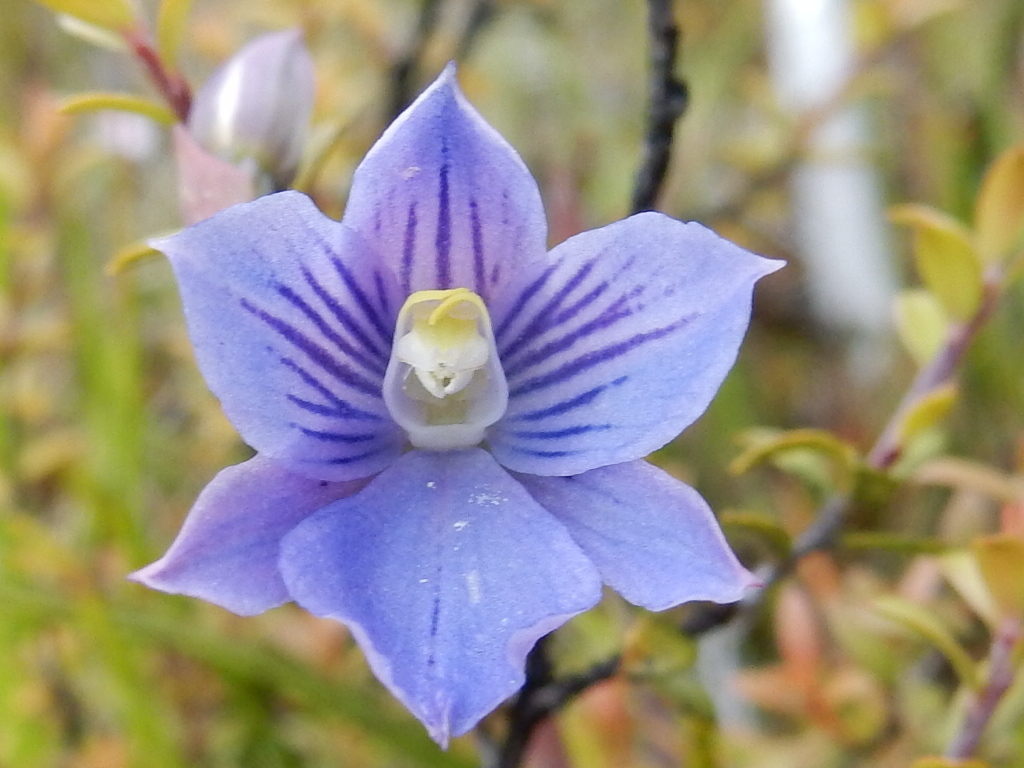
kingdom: Plantae
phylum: Tracheophyta
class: Liliopsida
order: Asparagales
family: Orchidaceae
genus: Thelymitra
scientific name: Thelymitra cyanea
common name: Blue sun-orchid
